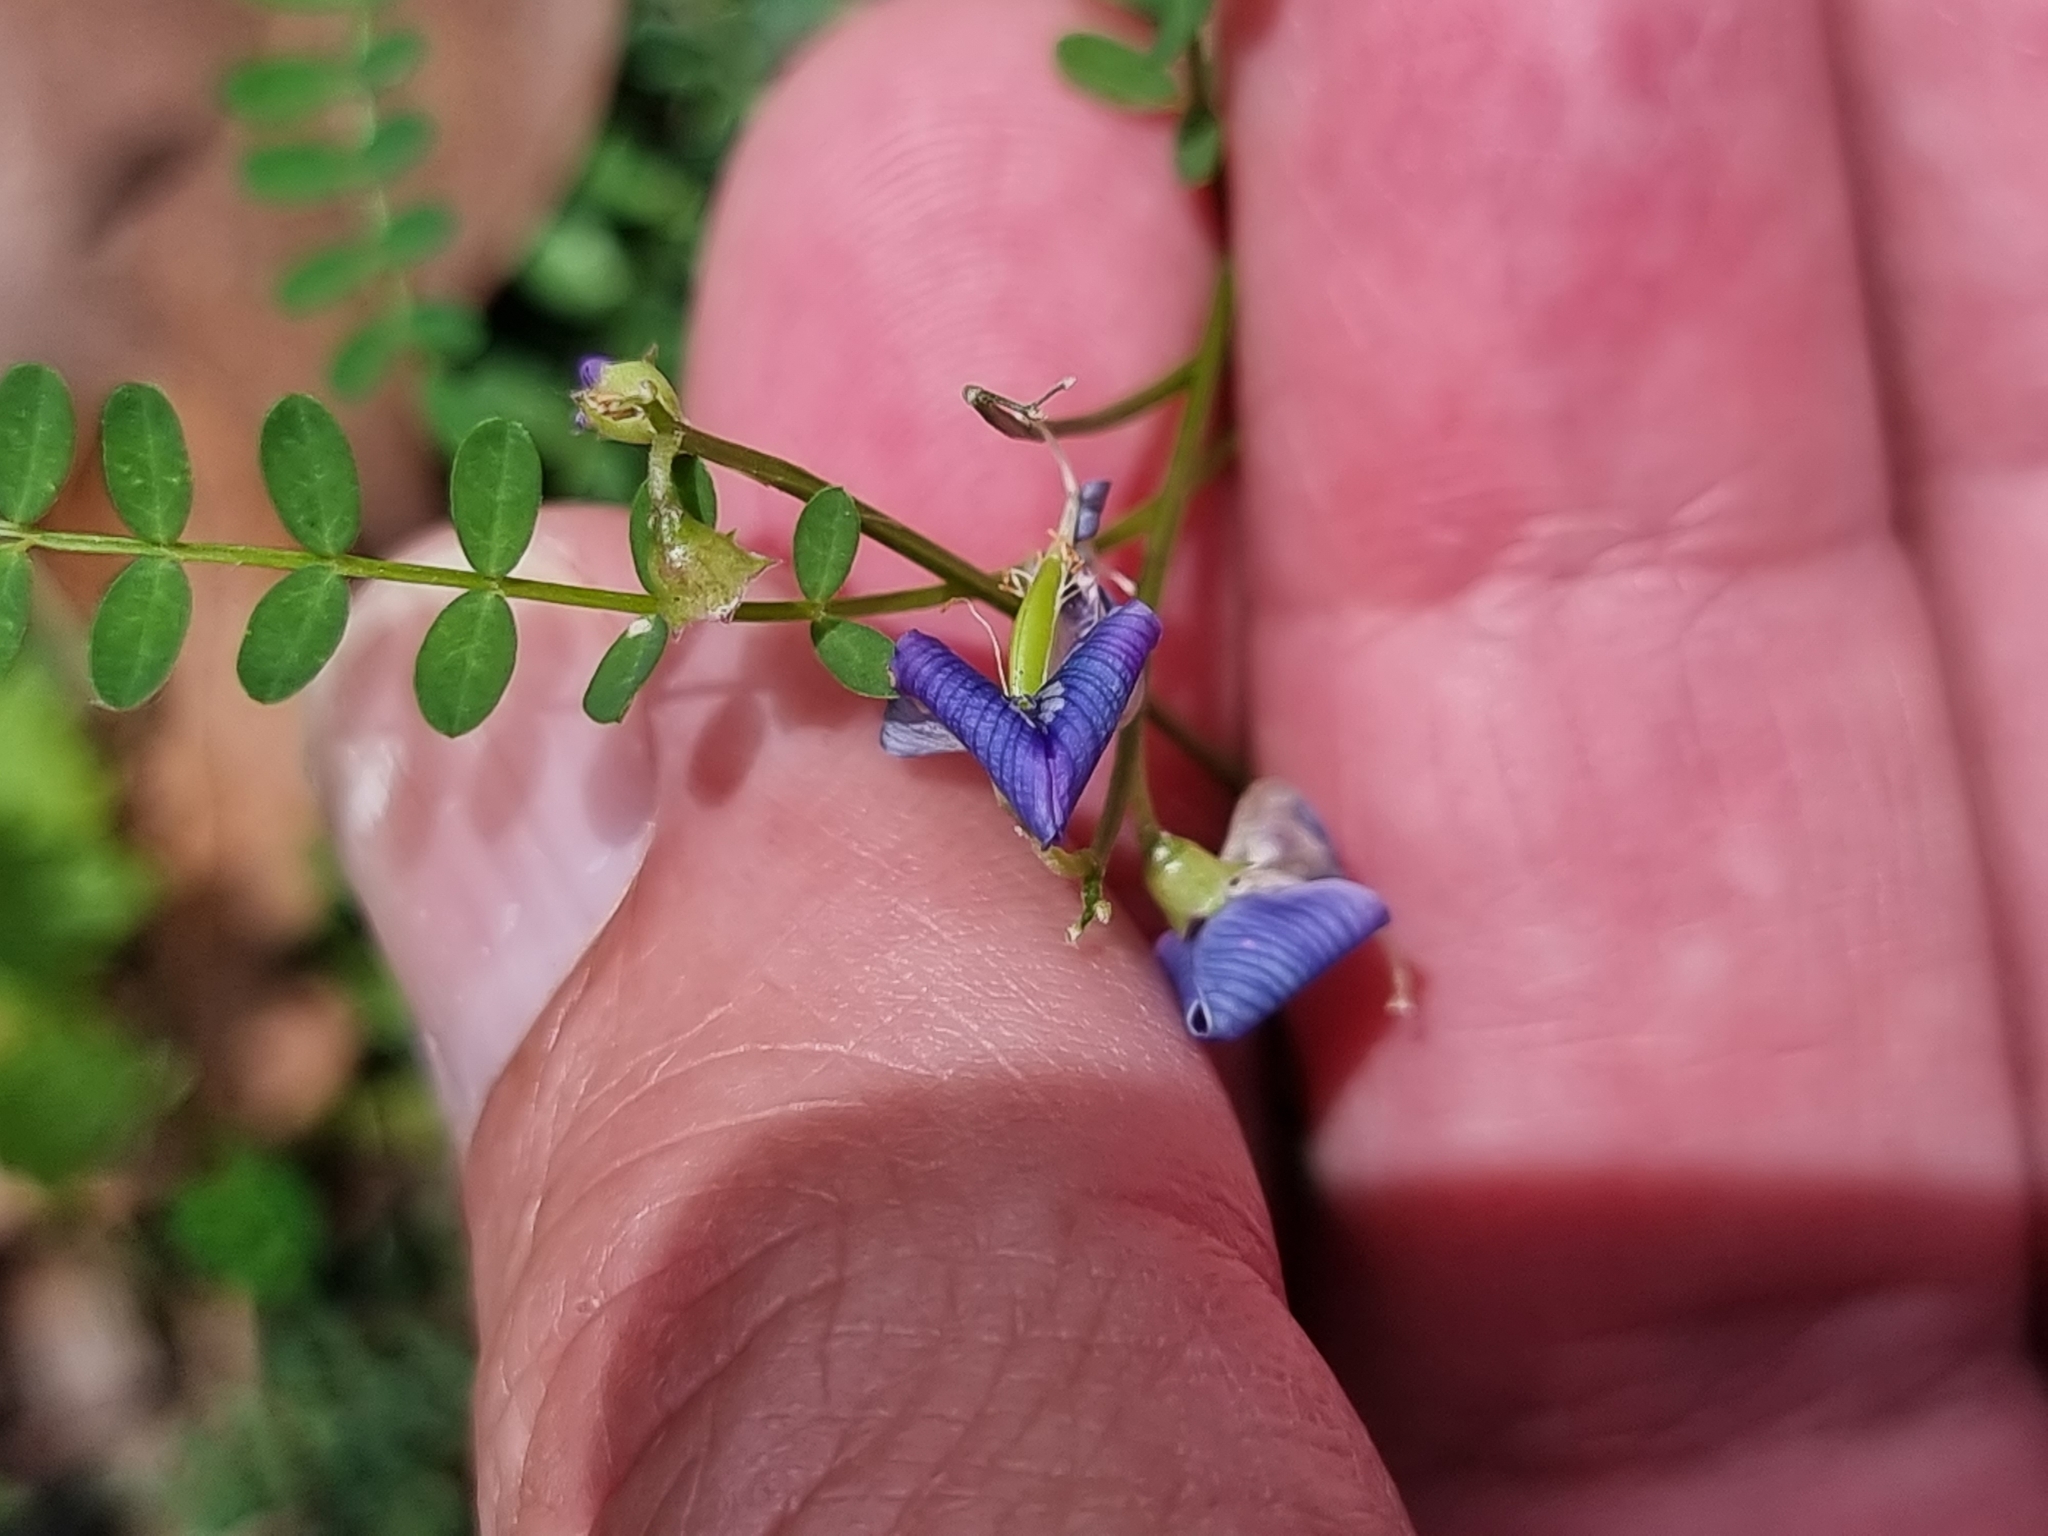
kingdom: Plantae
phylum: Tracheophyta
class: Magnoliopsida
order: Fabales
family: Fabaceae
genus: Swainsona
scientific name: Swainsona brachycarpa
